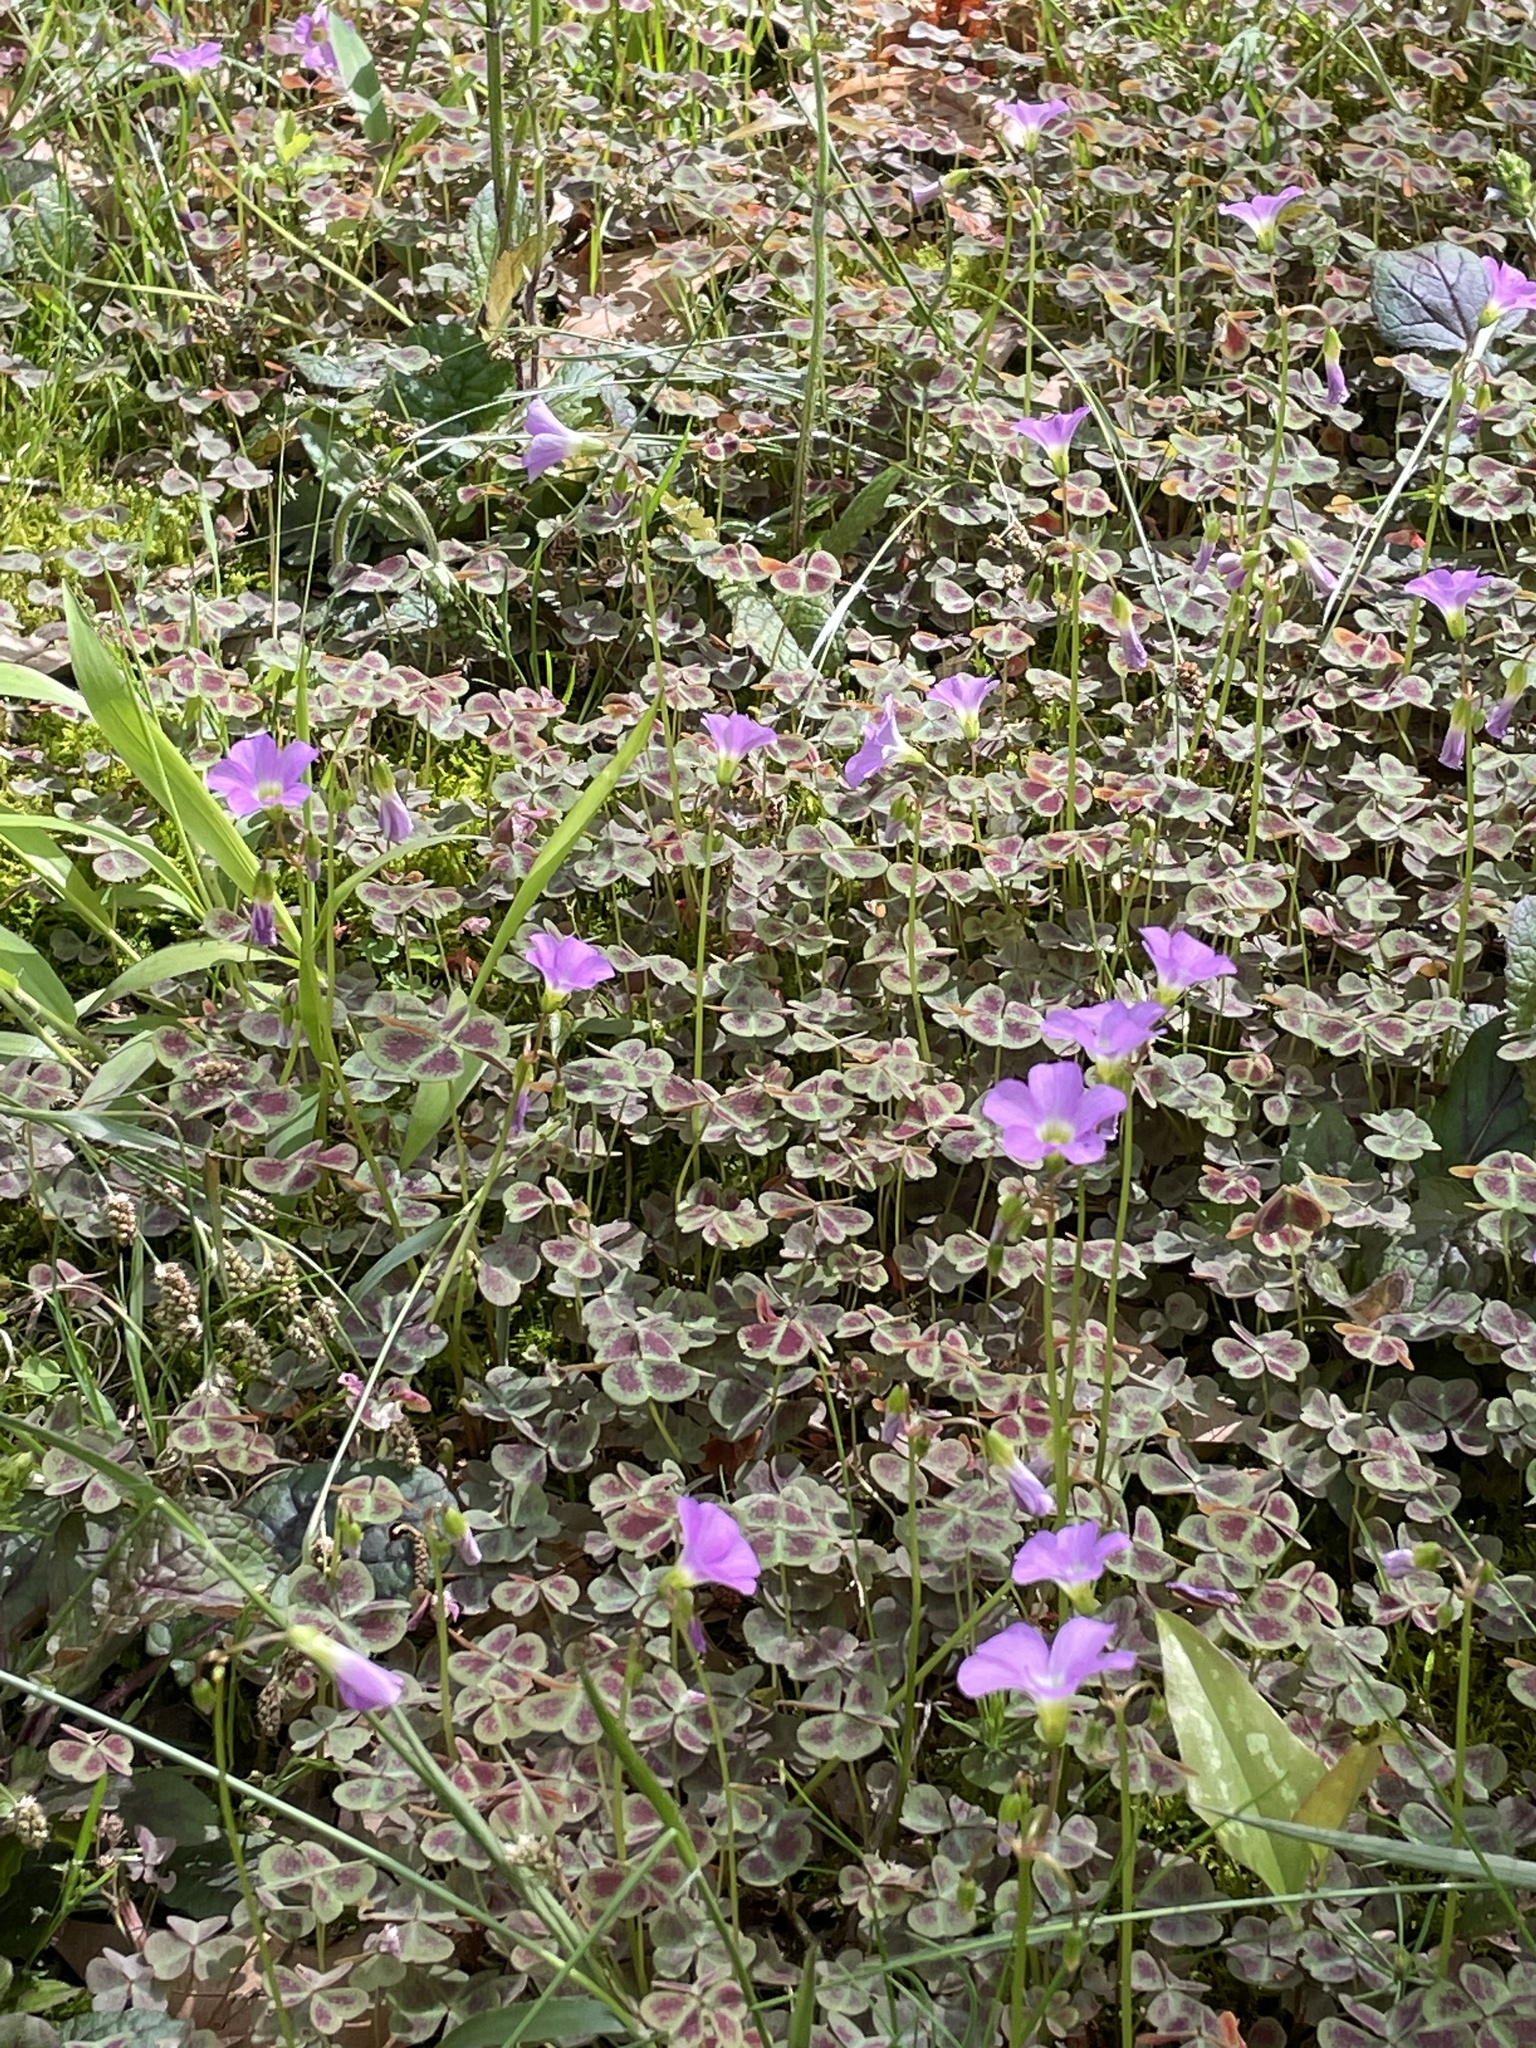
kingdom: Plantae
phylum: Tracheophyta
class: Magnoliopsida
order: Oxalidales
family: Oxalidaceae
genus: Oxalis
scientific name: Oxalis violacea
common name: Violet wood-sorrel
